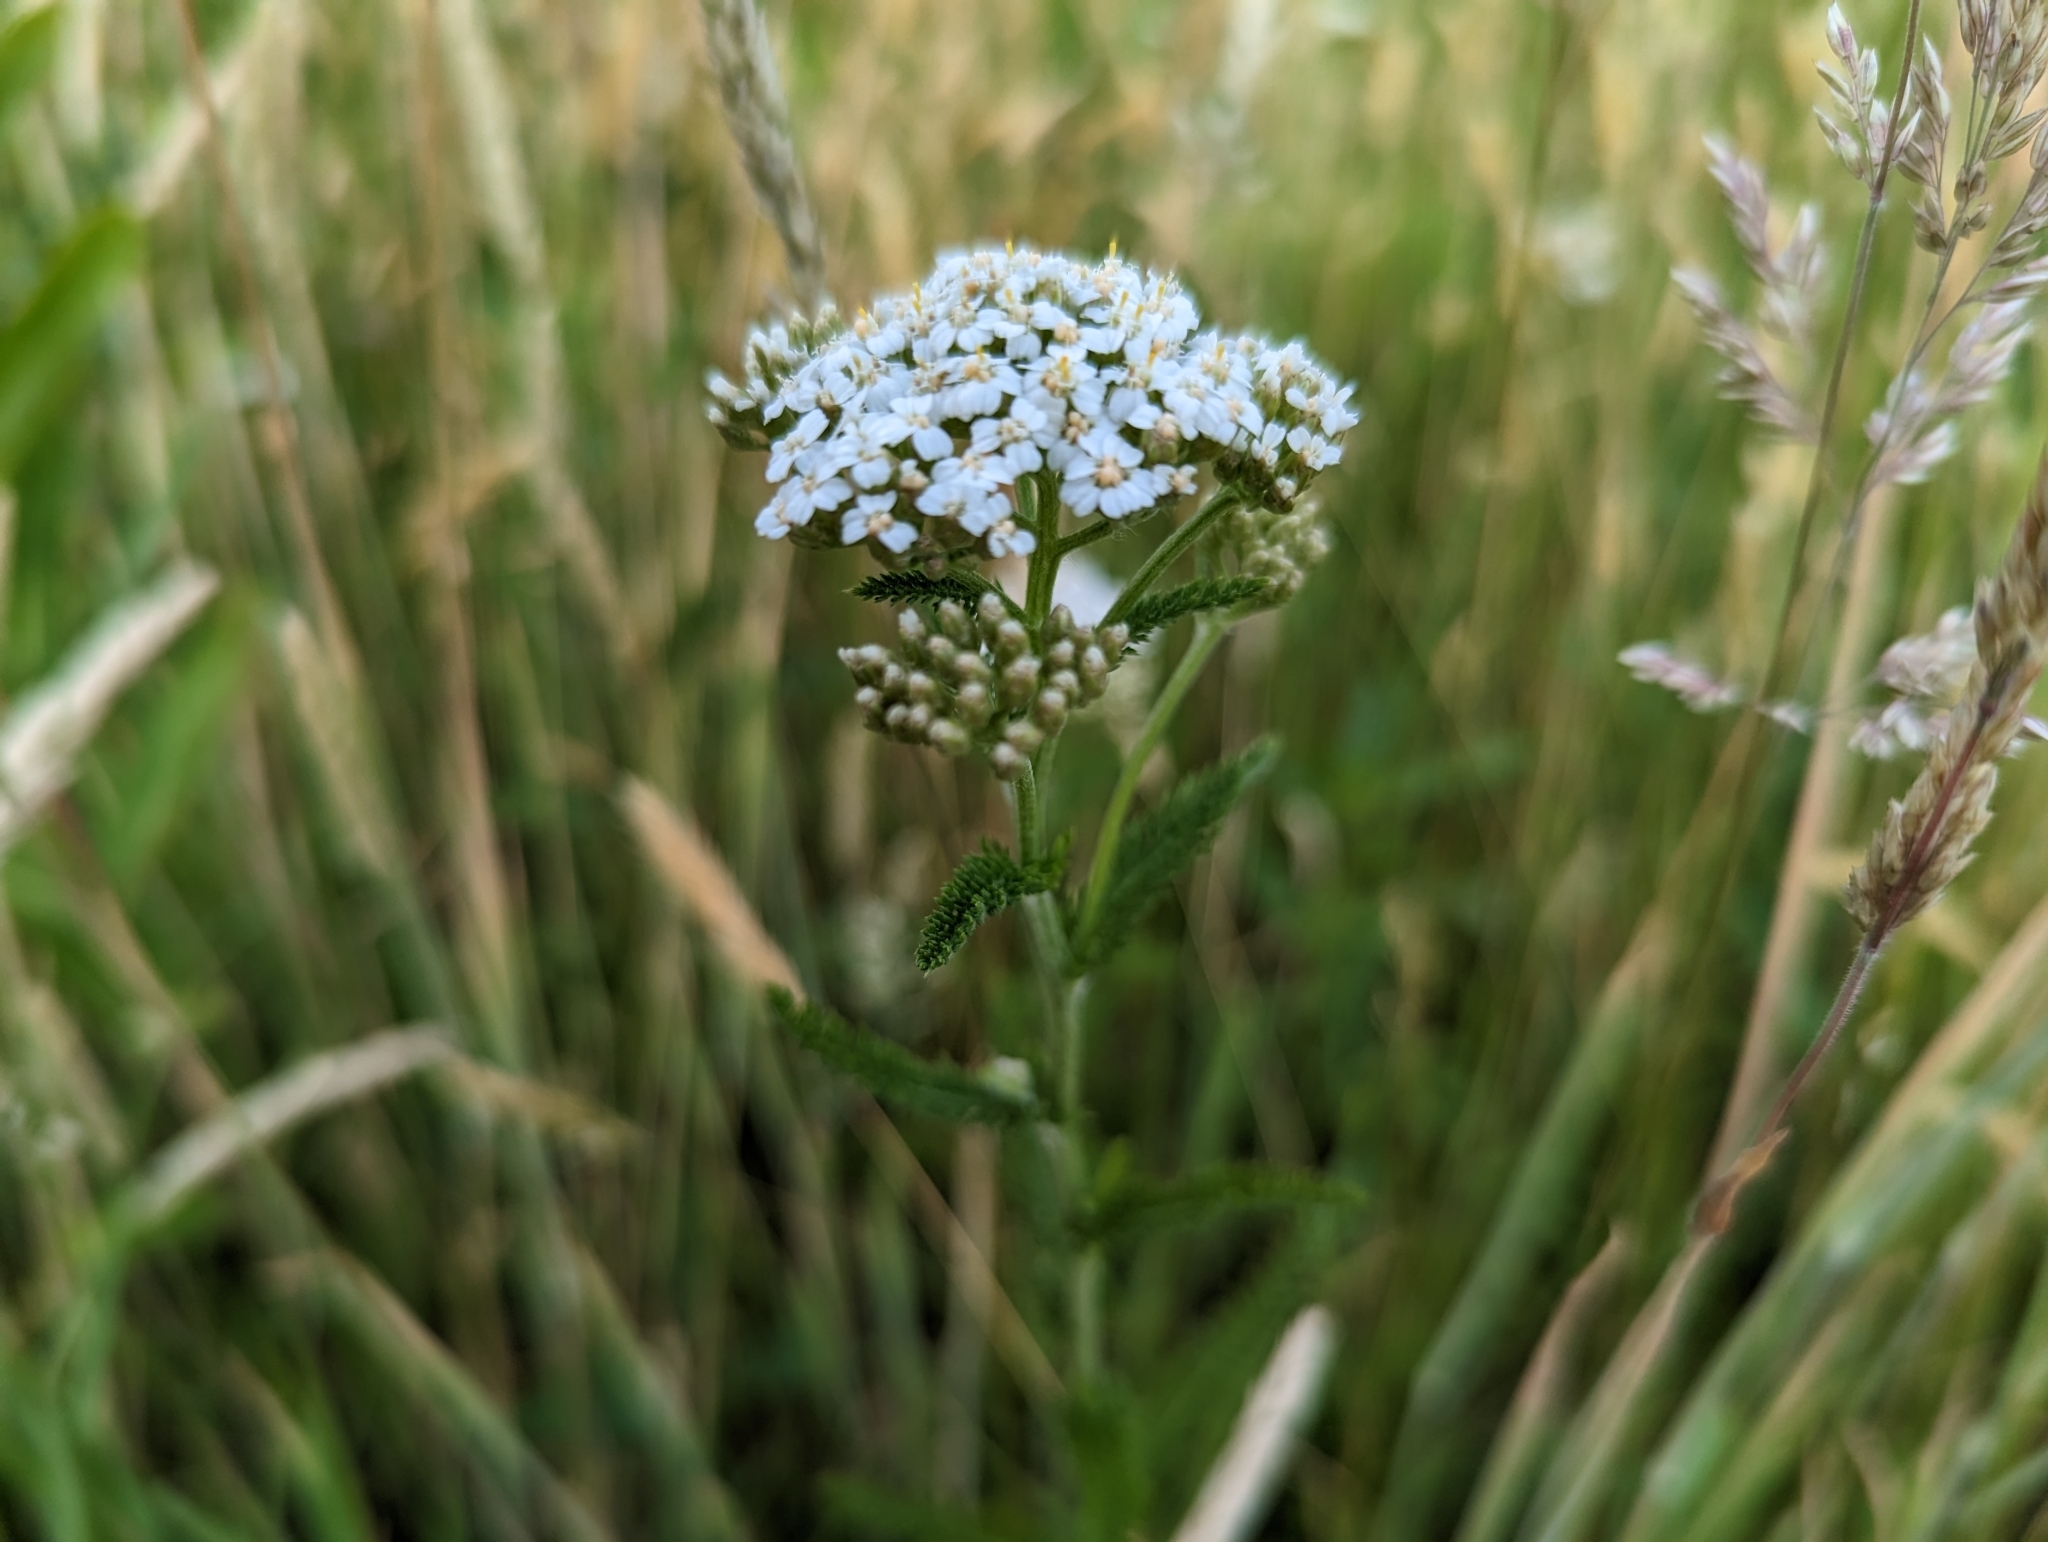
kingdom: Plantae
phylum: Tracheophyta
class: Magnoliopsida
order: Asterales
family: Asteraceae
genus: Achillea
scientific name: Achillea millefolium
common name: Yarrow
